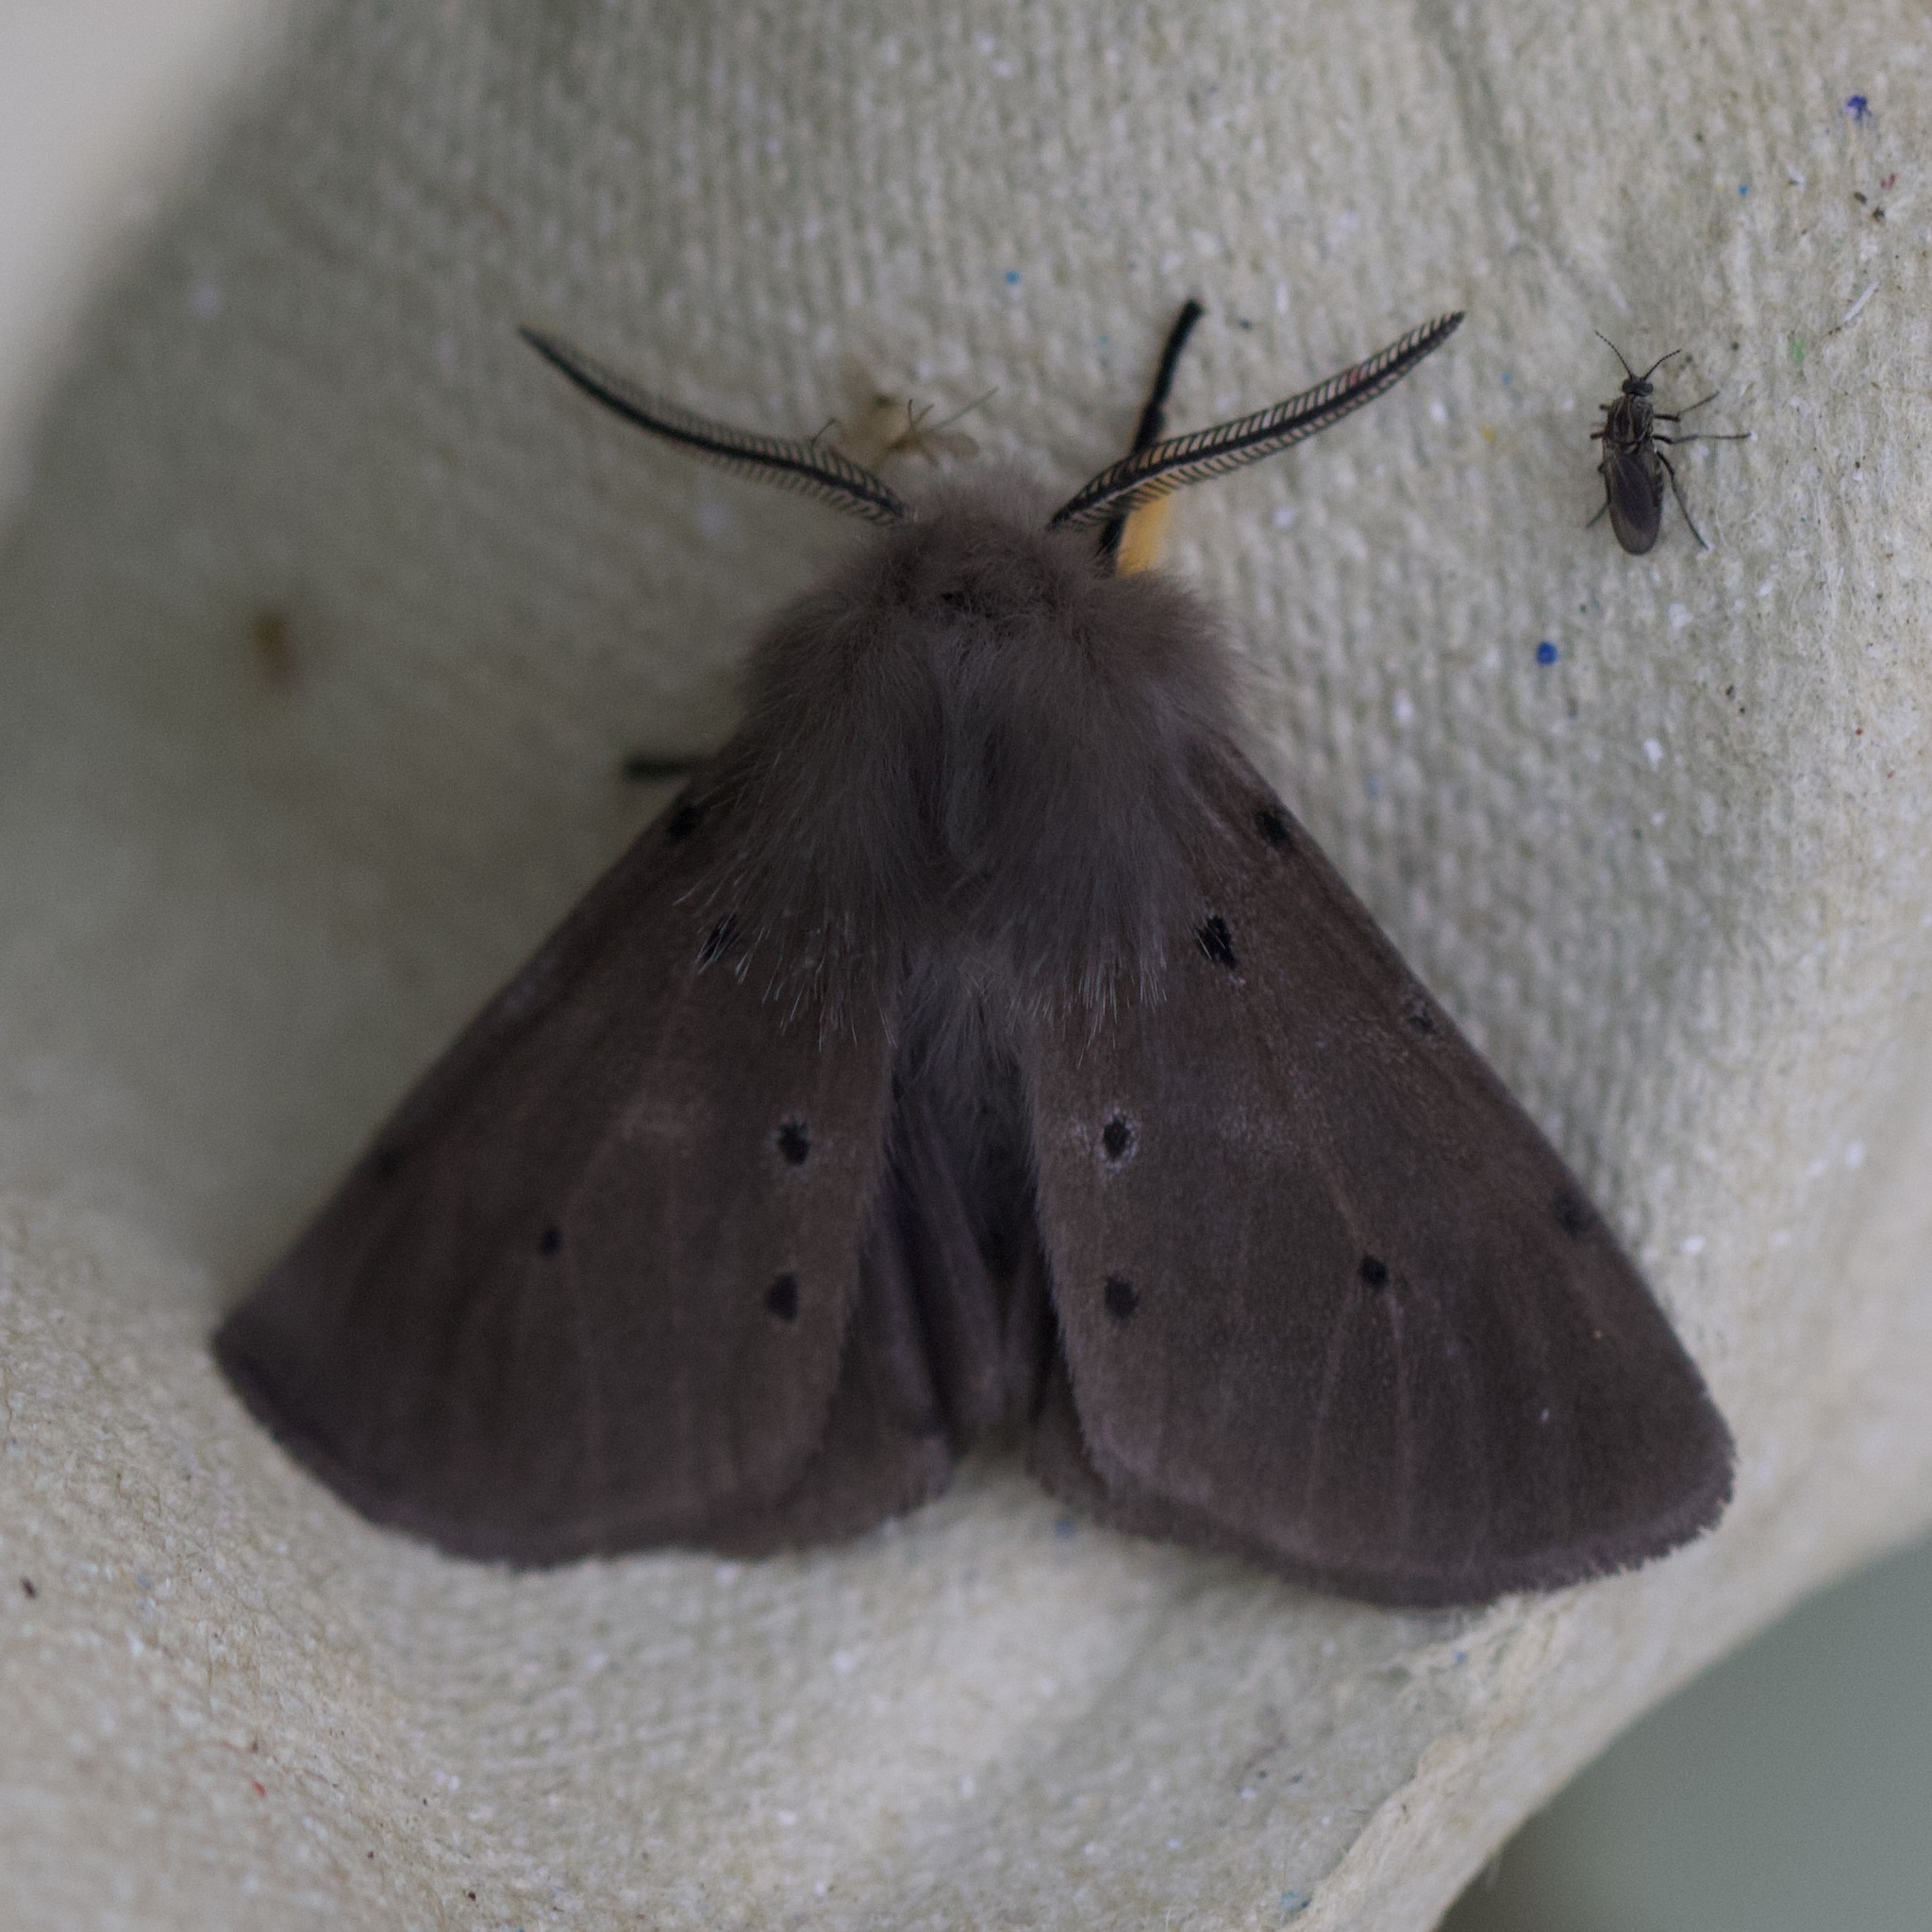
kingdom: Animalia
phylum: Arthropoda
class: Insecta
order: Lepidoptera
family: Erebidae
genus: Diaphora
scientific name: Diaphora mendica
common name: Muslin moth
